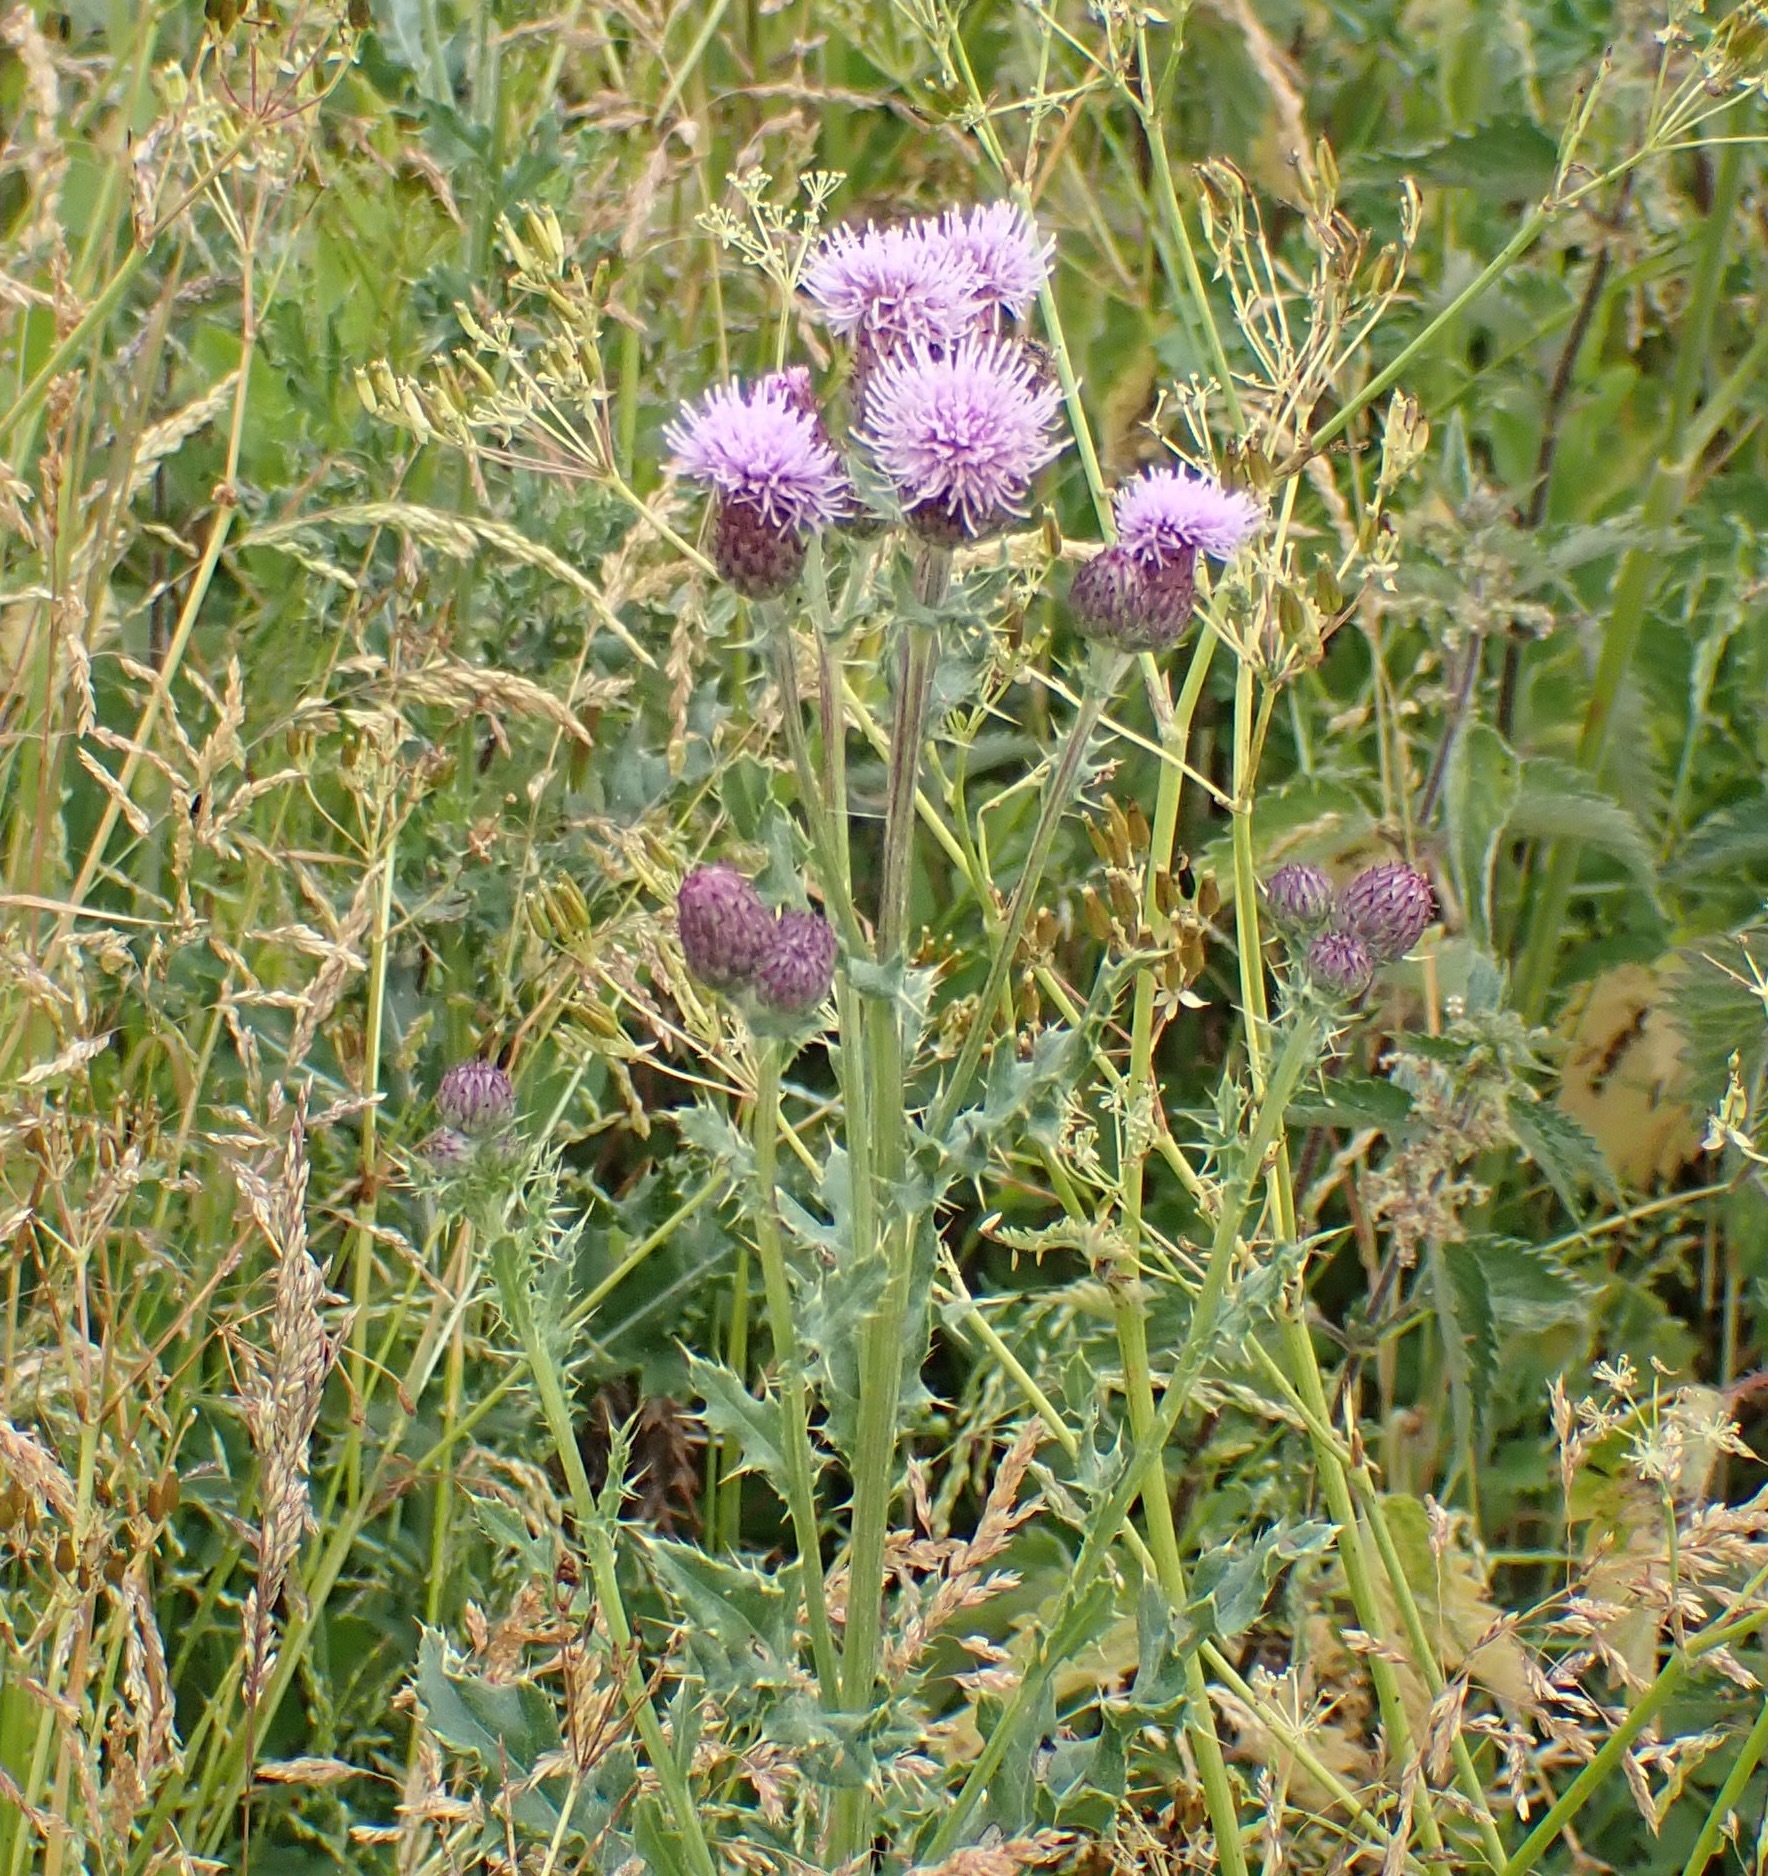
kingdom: Plantae
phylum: Tracheophyta
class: Magnoliopsida
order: Asterales
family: Asteraceae
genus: Cirsium
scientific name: Cirsium arvense
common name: Creeping thistle
